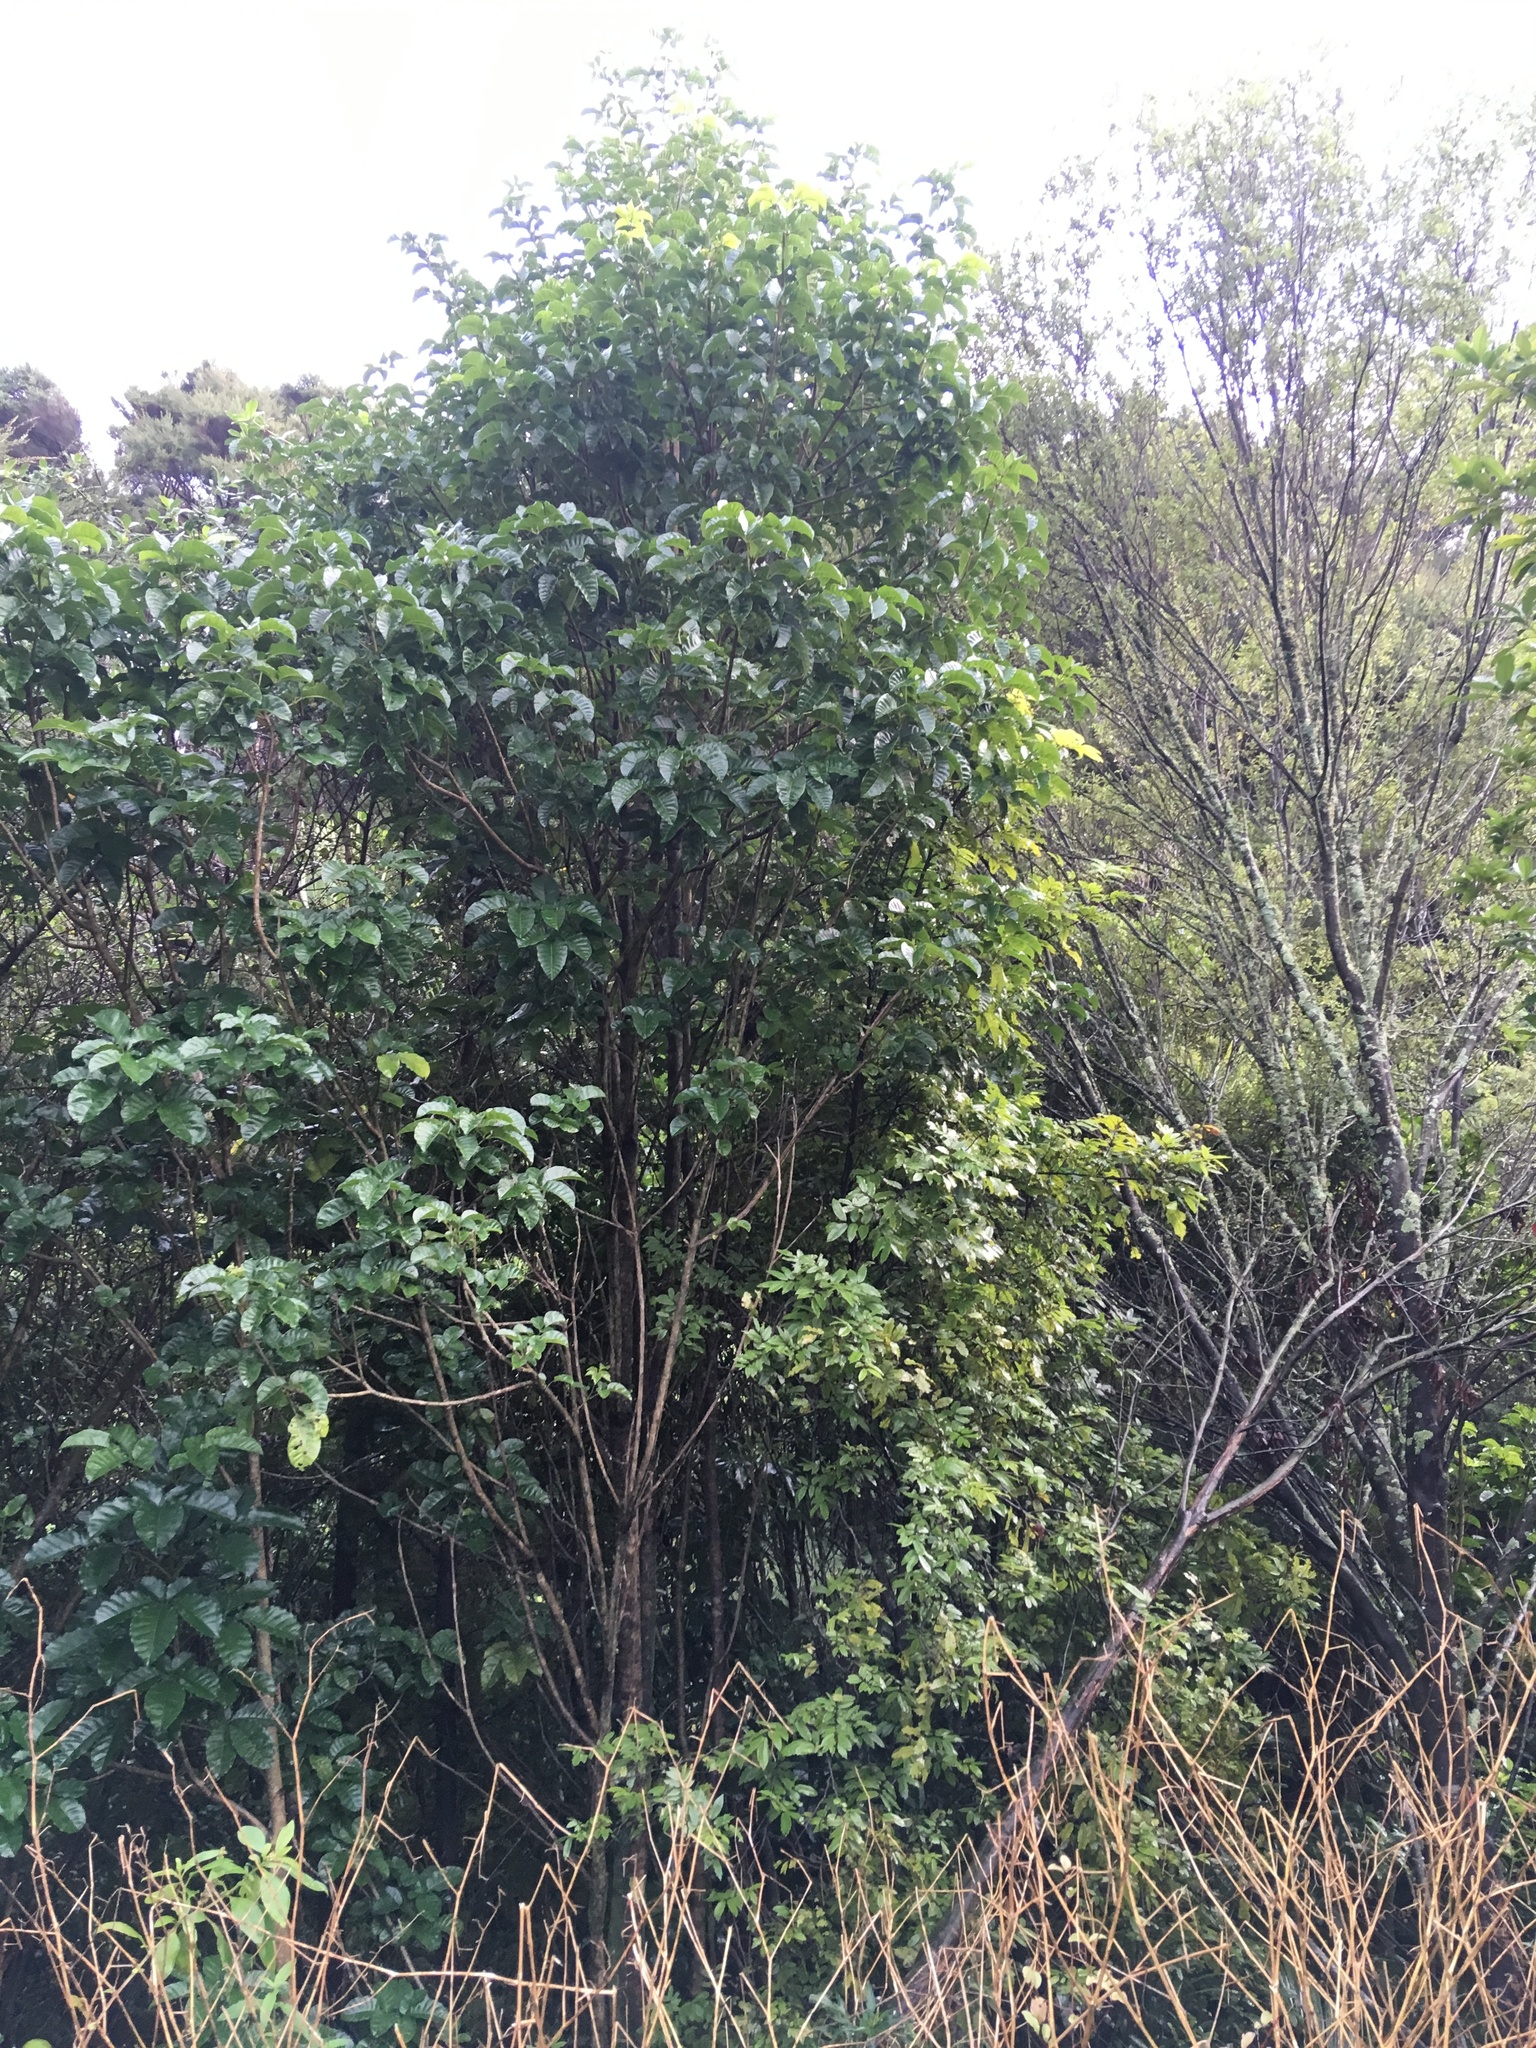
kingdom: Plantae
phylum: Tracheophyta
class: Magnoliopsida
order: Lamiales
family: Lamiaceae
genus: Vitex
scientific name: Vitex lucens
